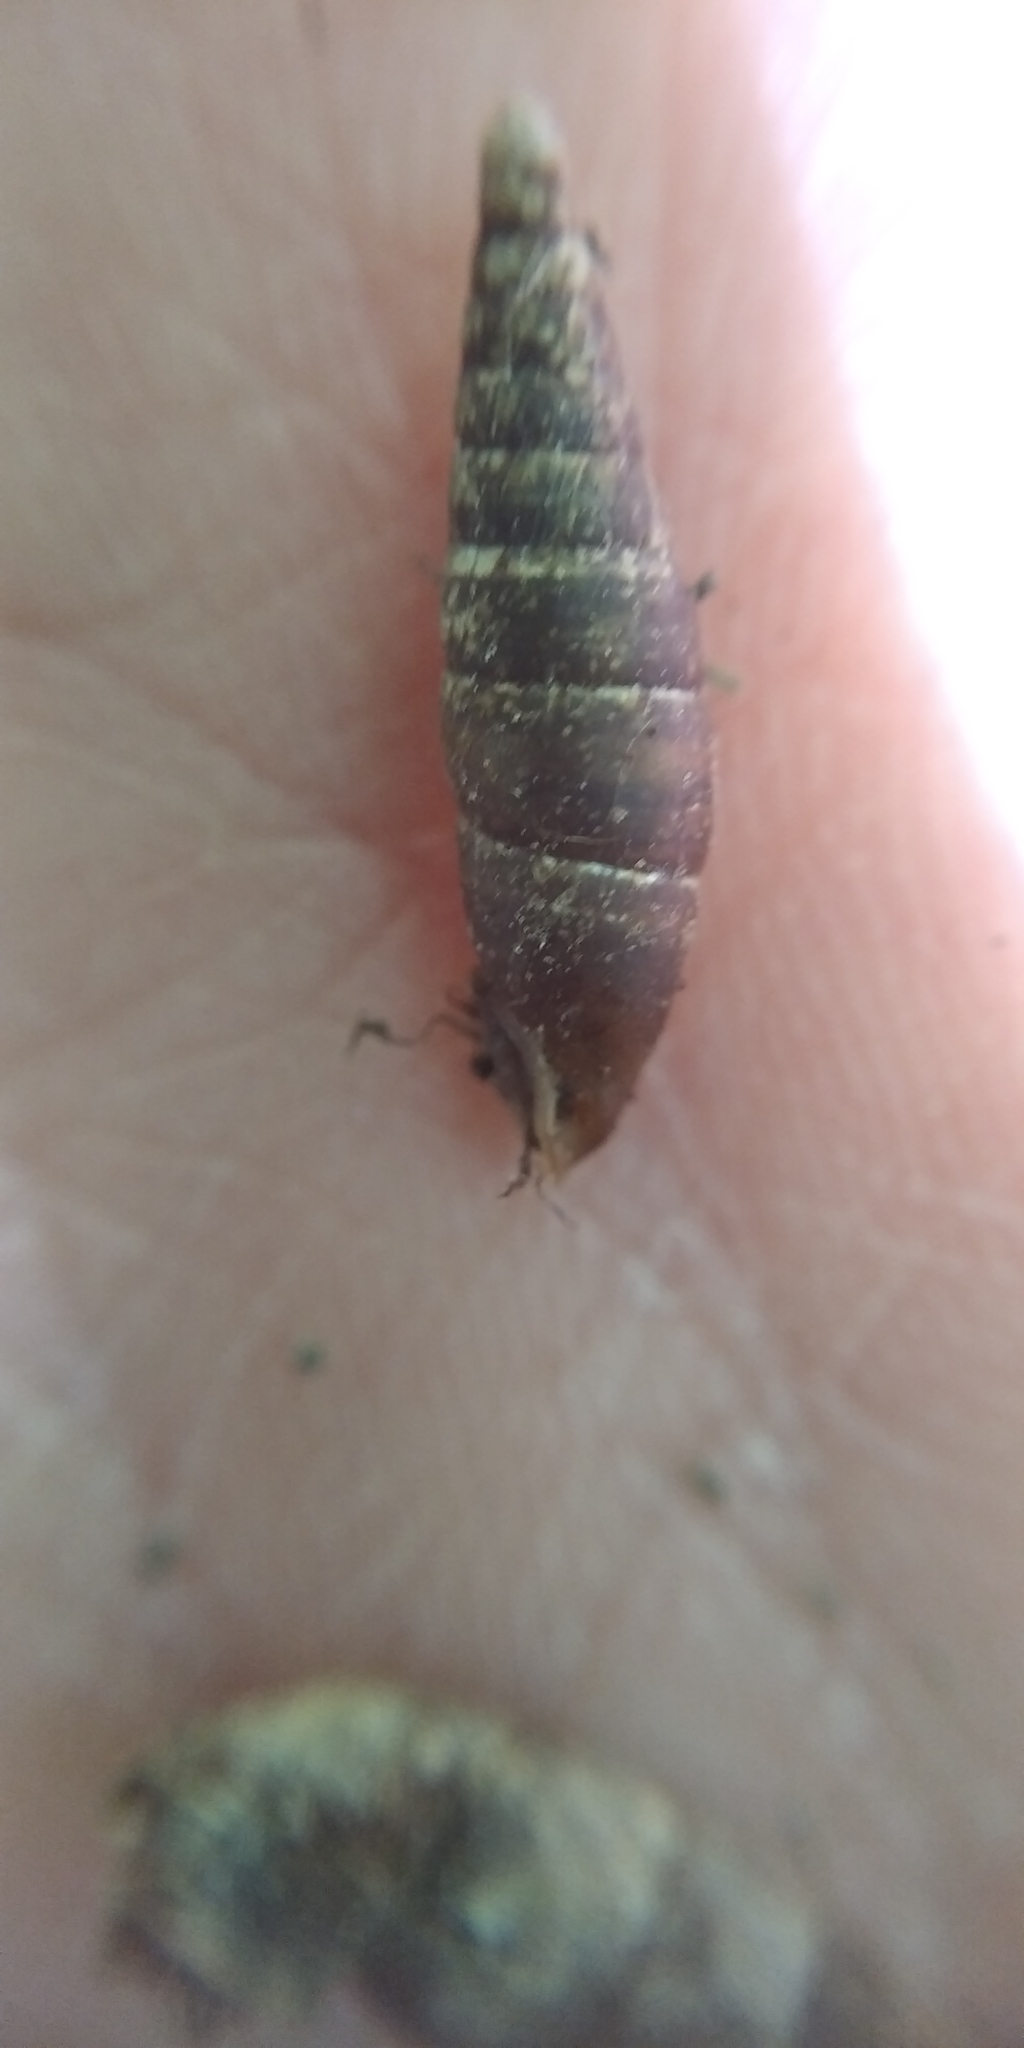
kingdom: Animalia
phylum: Mollusca
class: Gastropoda
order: Stylommatophora
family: Clausiliidae
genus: Cochlodina
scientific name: Cochlodina laminata
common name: Plaited door snail
